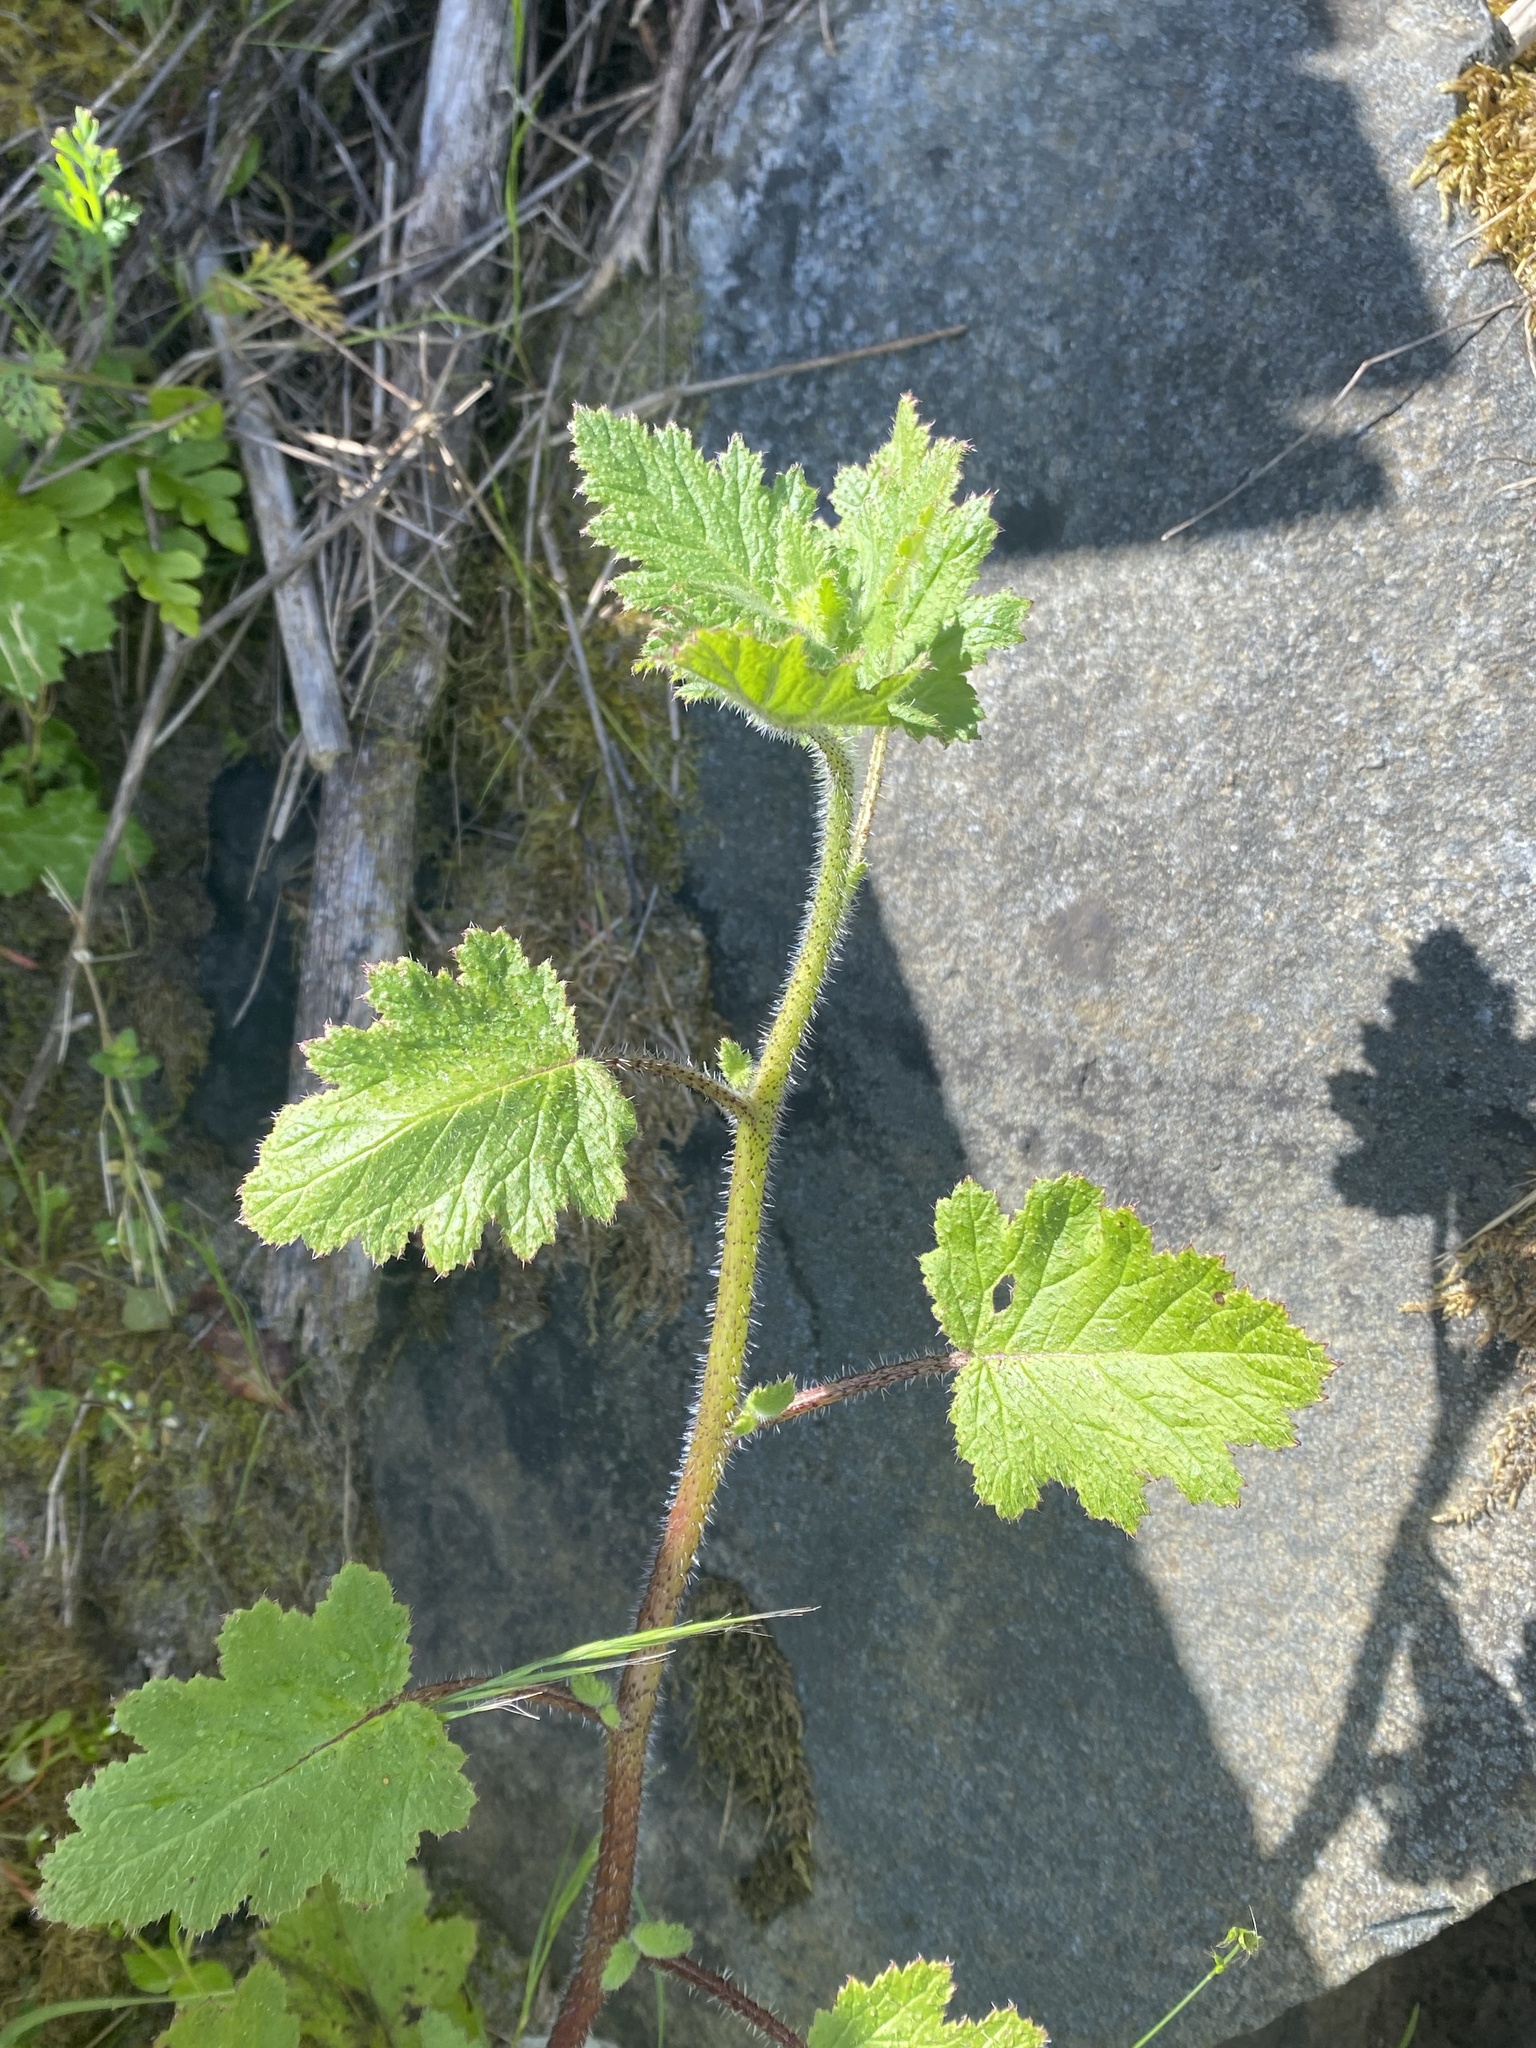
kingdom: Plantae
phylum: Tracheophyta
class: Magnoliopsida
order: Boraginales
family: Hydrophyllaceae
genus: Phacelia
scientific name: Phacelia malvifolia
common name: Mallow-leaf phacelia
